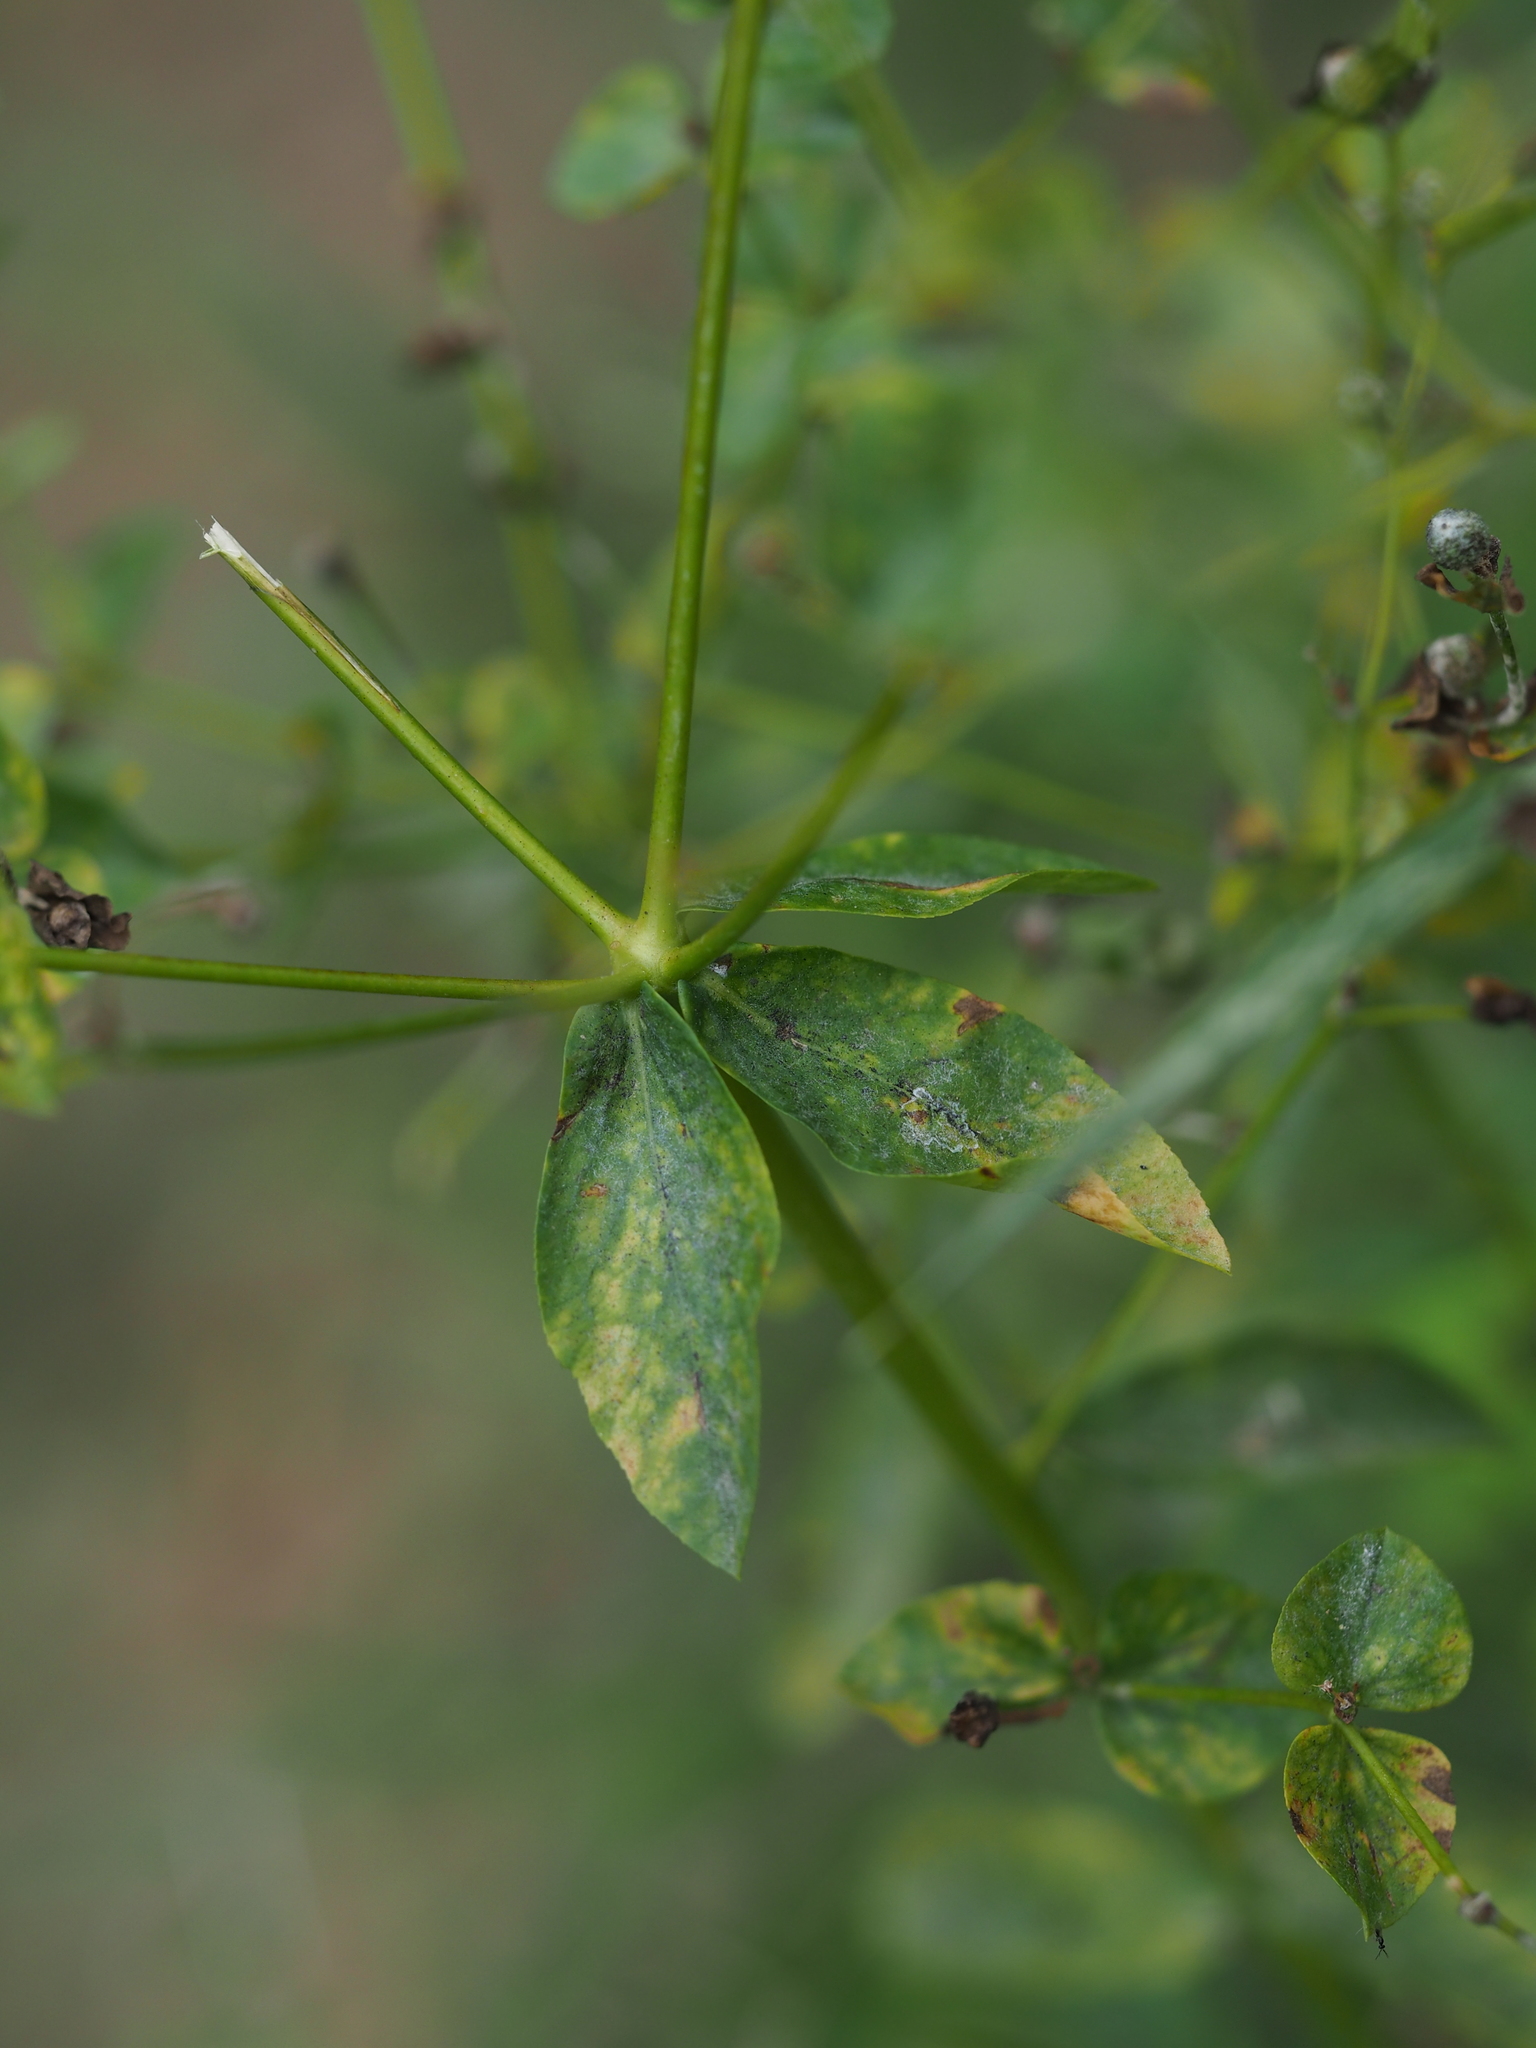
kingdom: Fungi
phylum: Ascomycota
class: Leotiomycetes
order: Helotiales
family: Erysiphaceae
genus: Podosphaera
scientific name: Podosphaera euphorbiae
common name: Eurasian poinsettia powdery mildew
